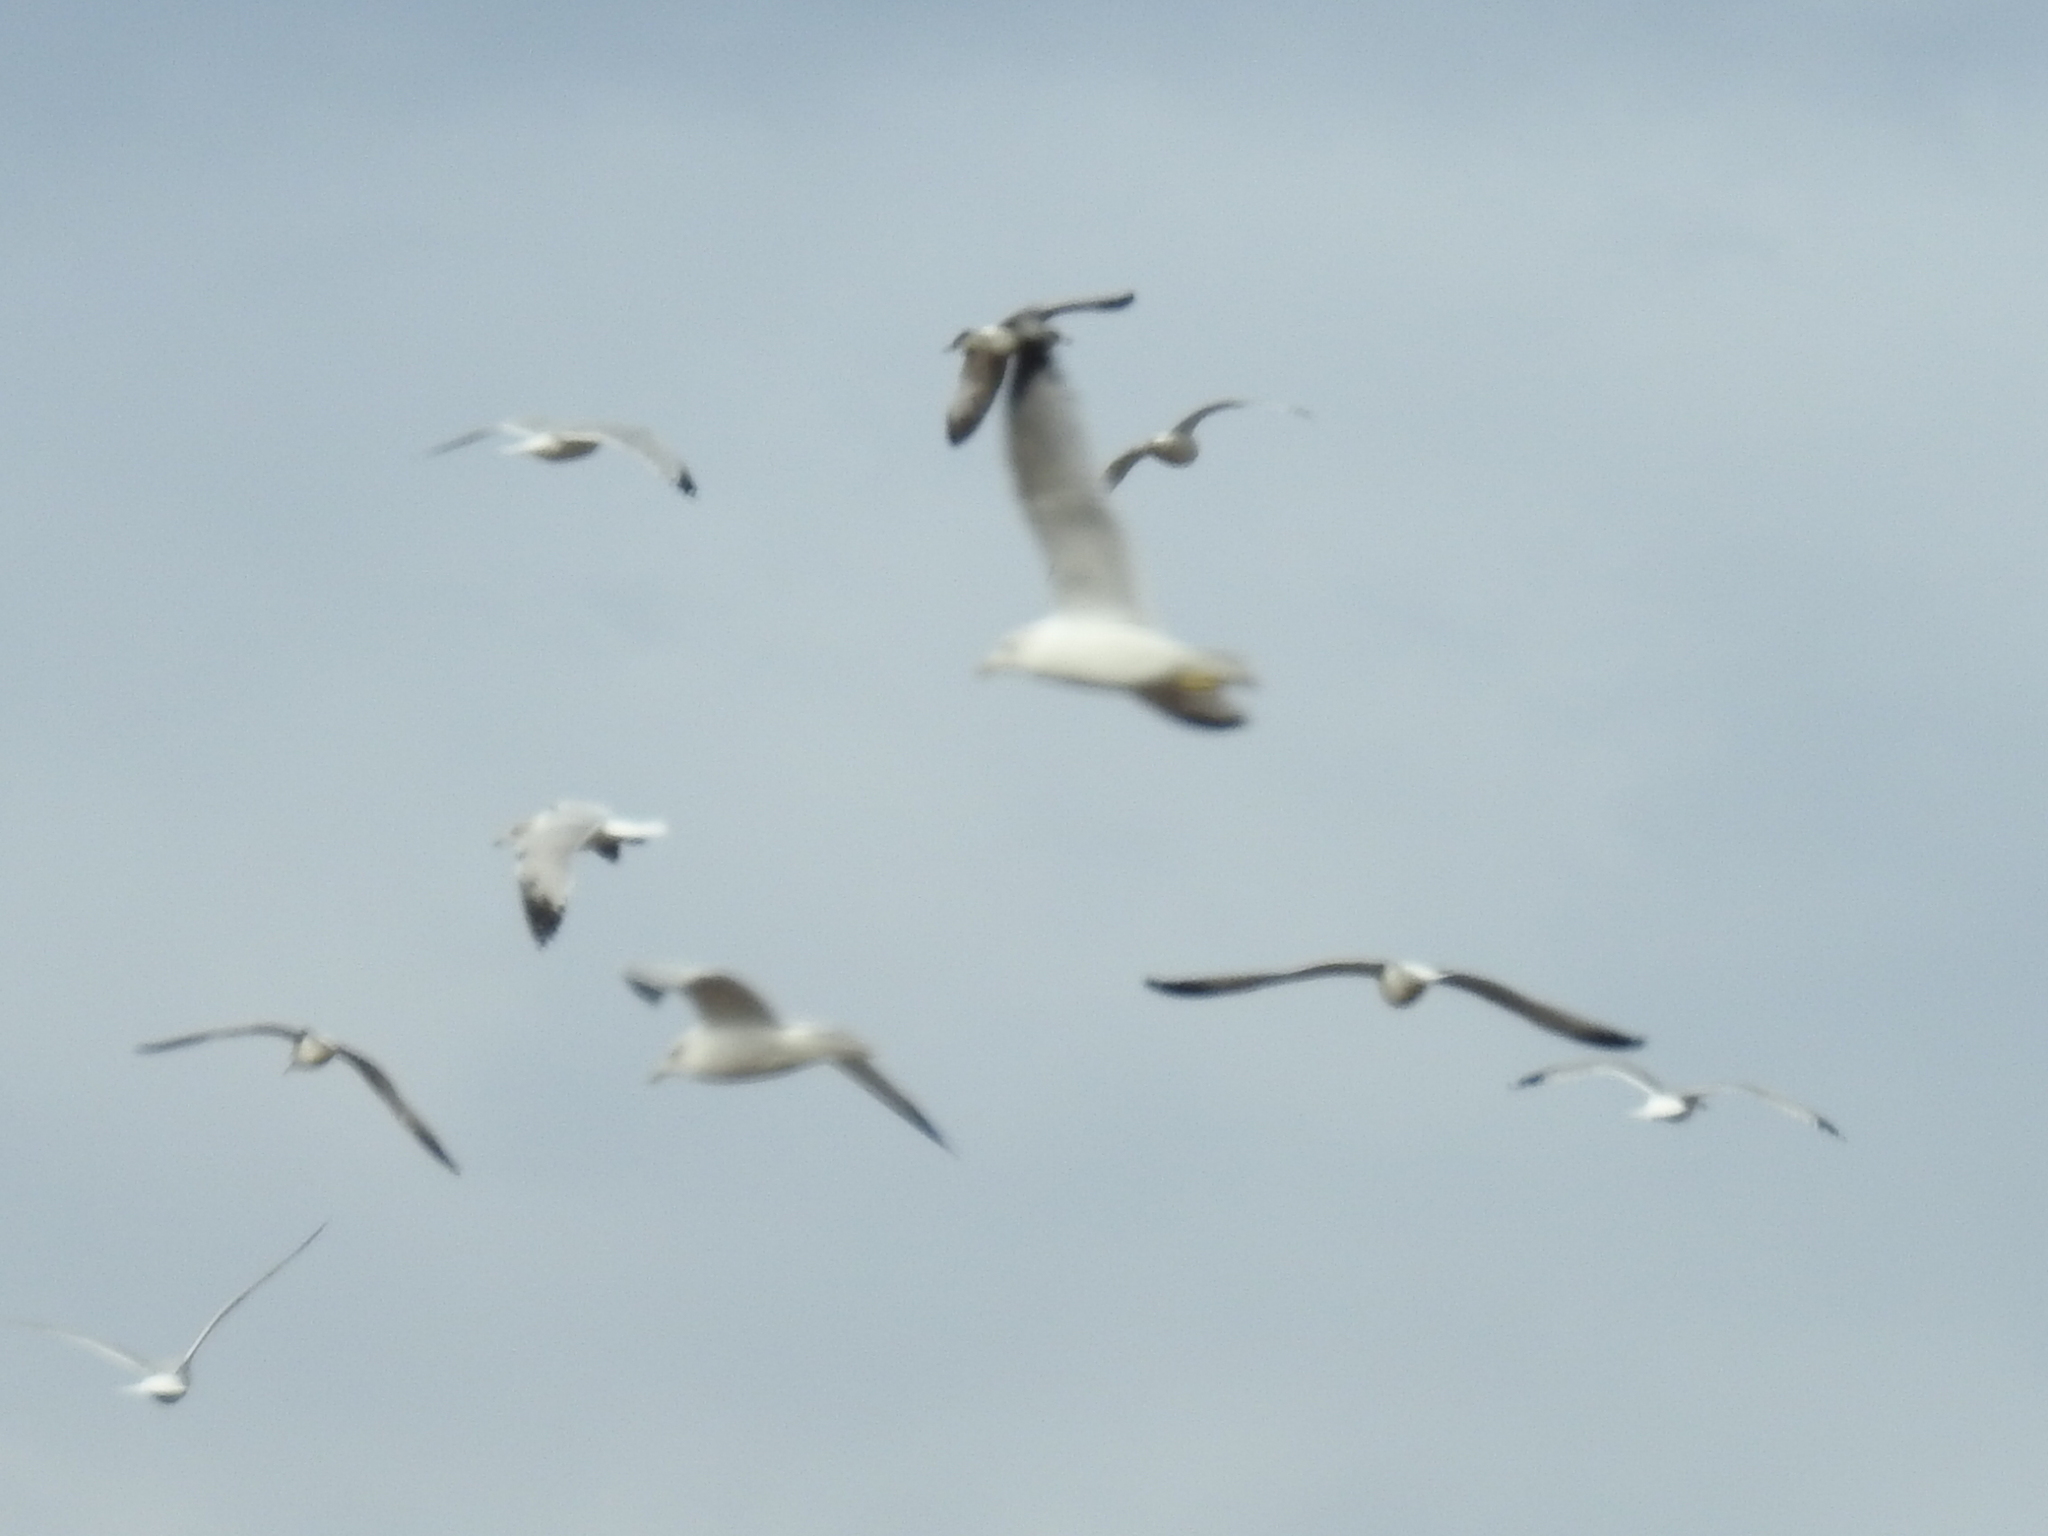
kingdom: Animalia
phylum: Chordata
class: Aves
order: Charadriiformes
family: Laridae
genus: Larus
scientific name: Larus delawarensis
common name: Ring-billed gull
